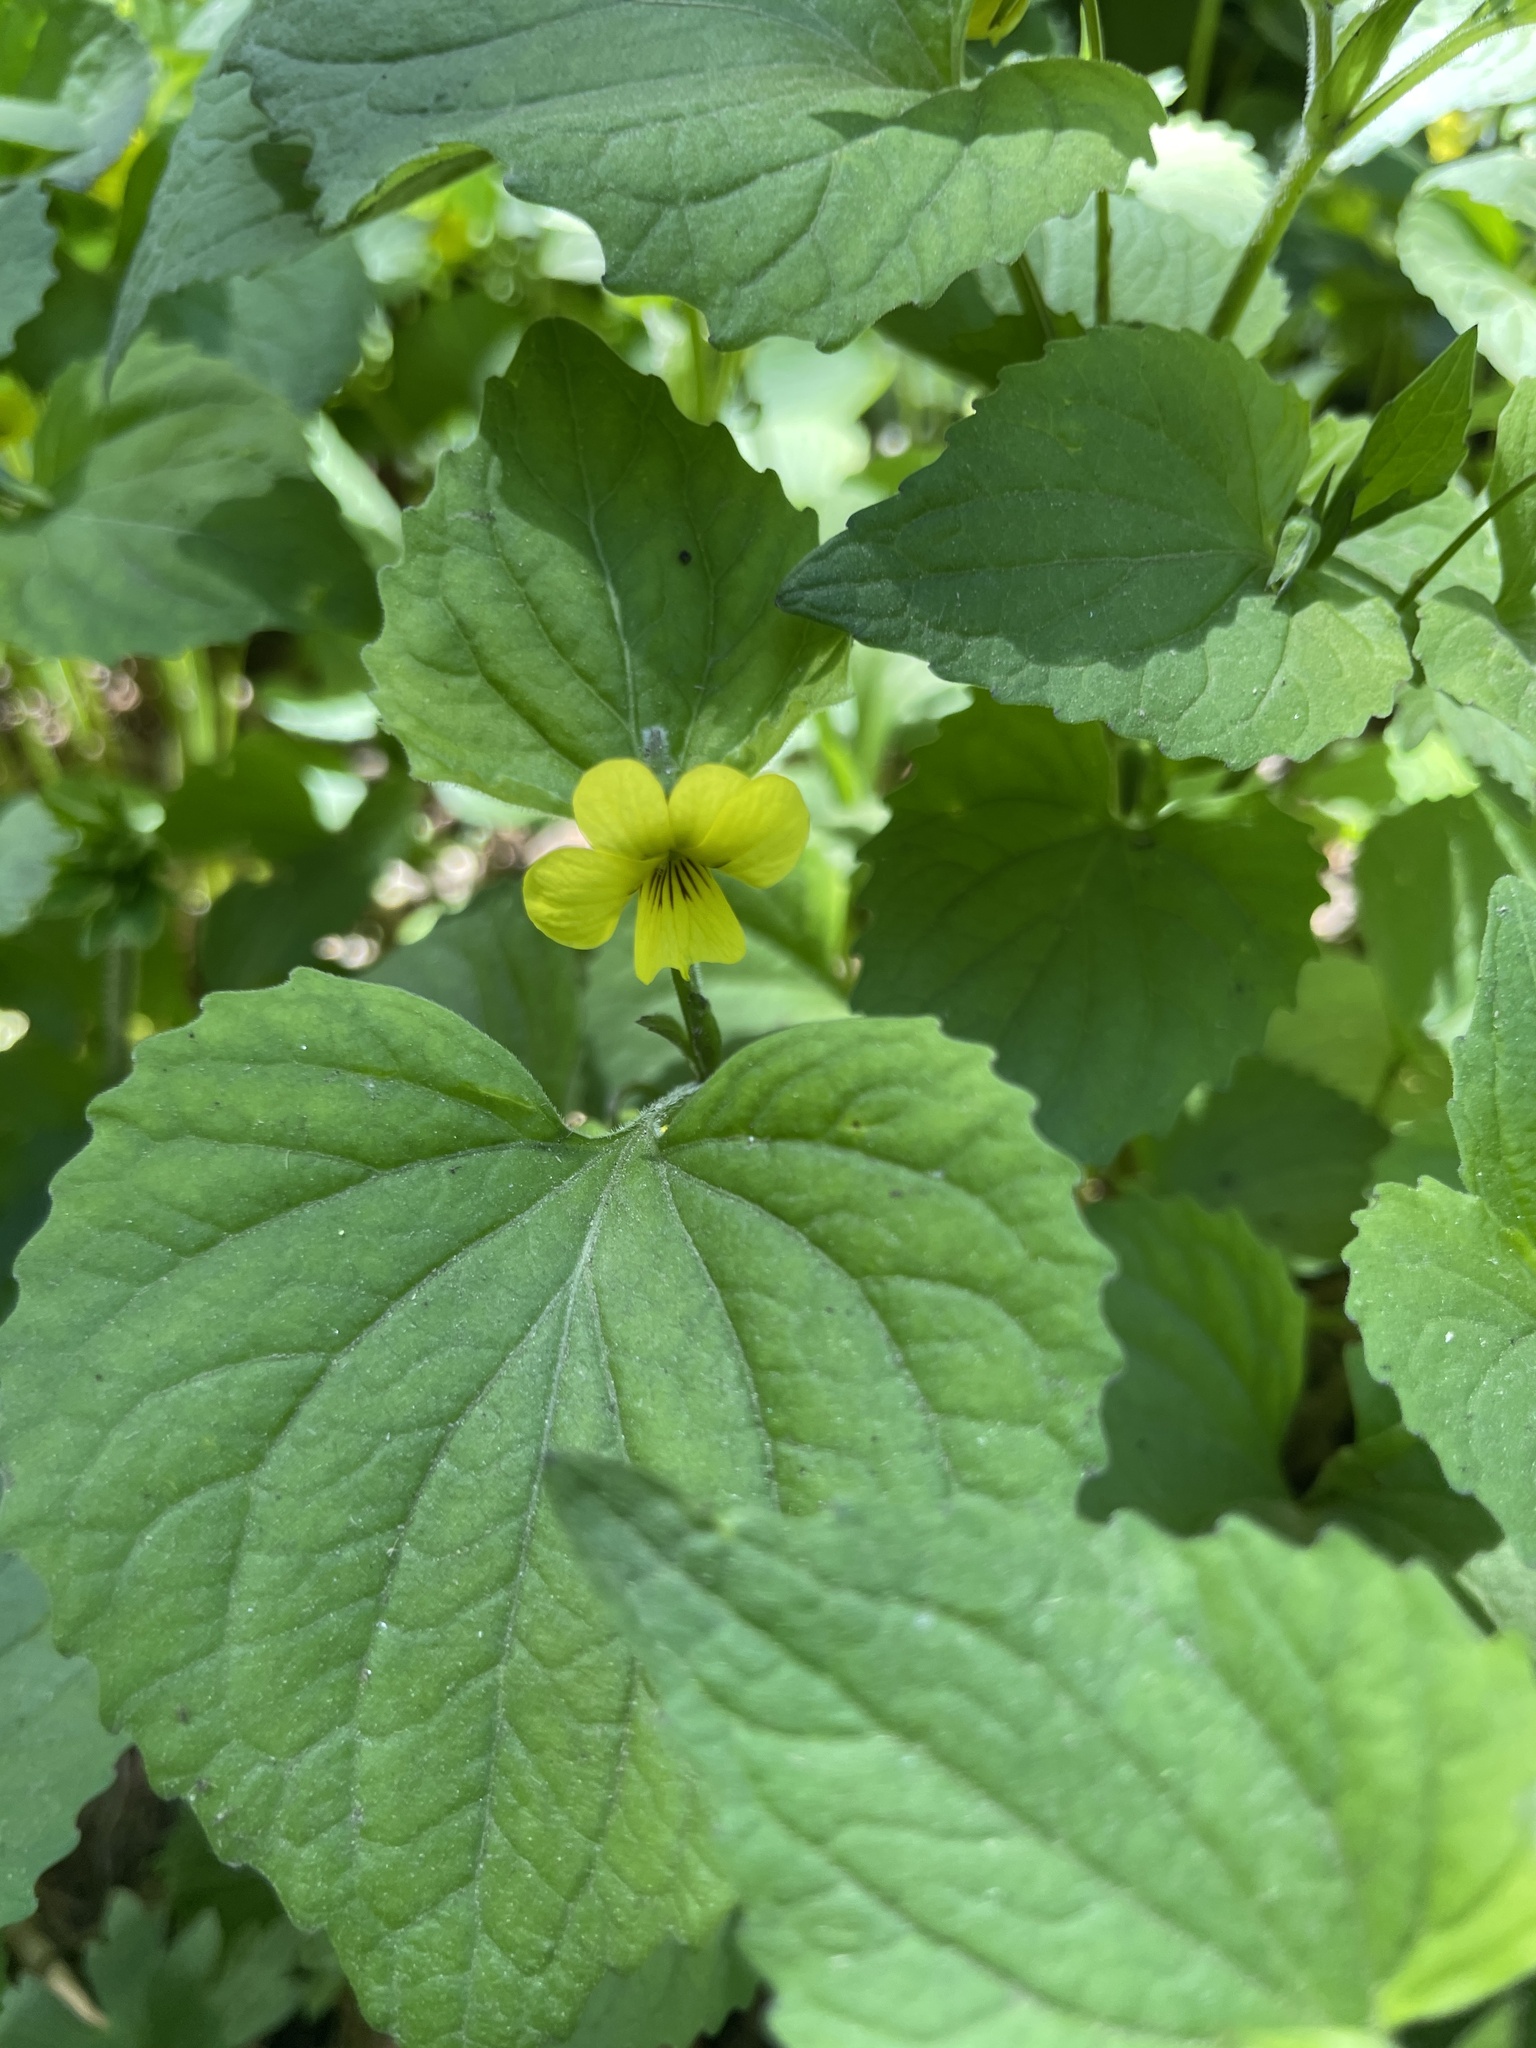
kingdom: Plantae
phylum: Tracheophyta
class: Magnoliopsida
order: Malpighiales
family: Violaceae
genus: Viola
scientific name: Viola eriocarpa
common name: Smooth yellow violet
